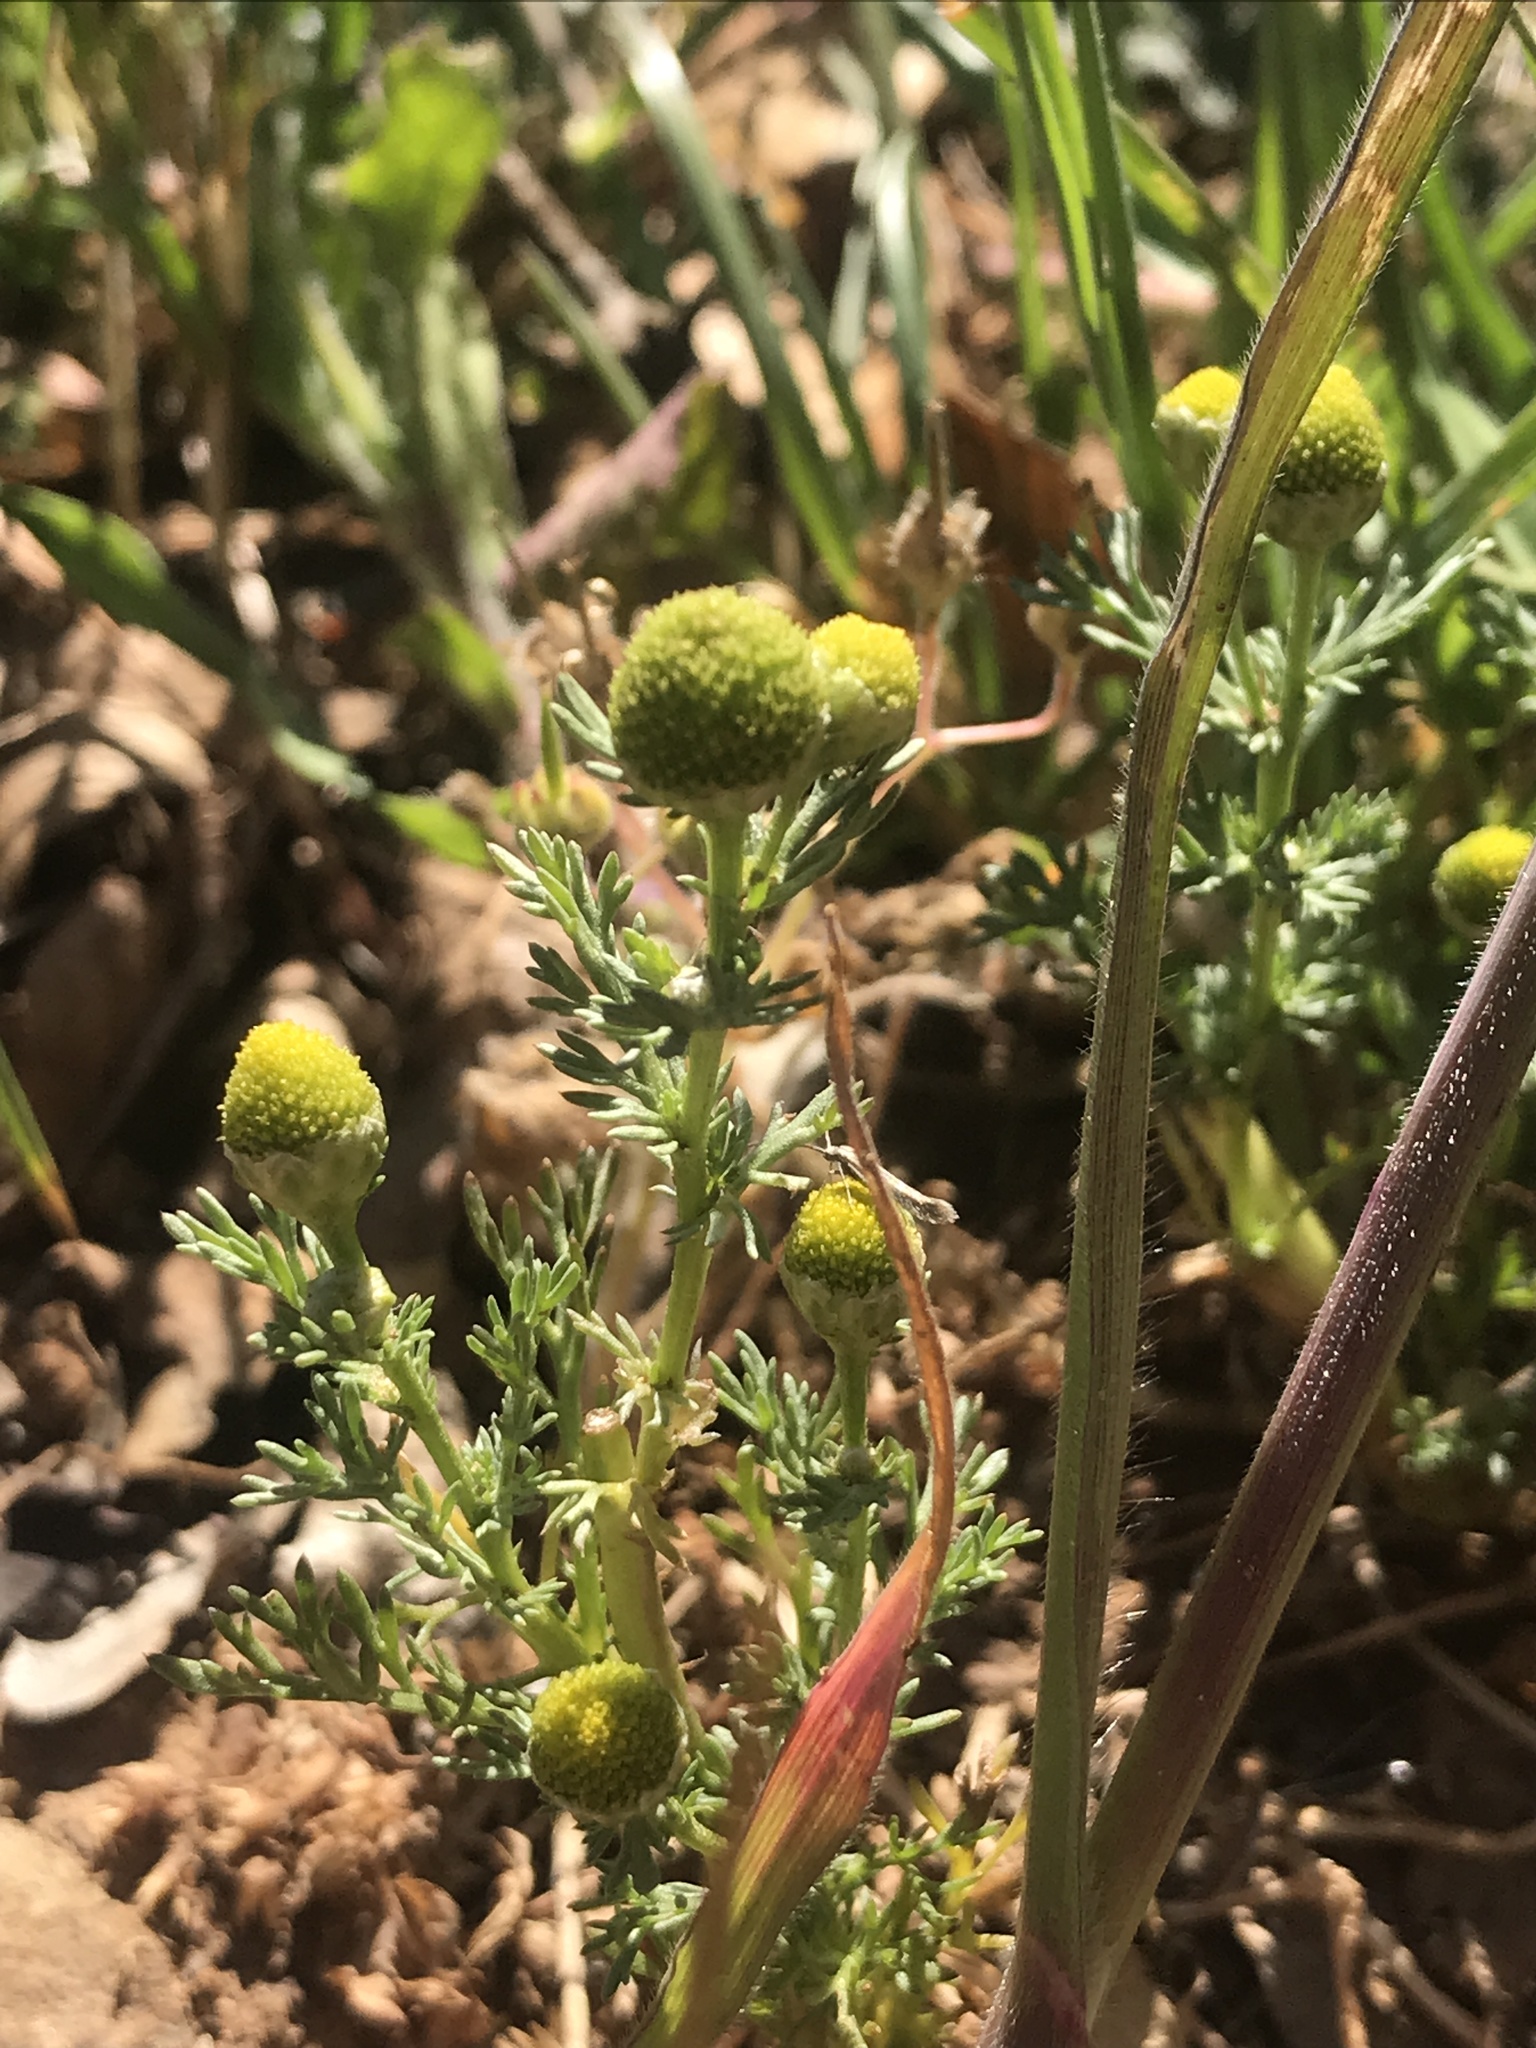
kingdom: Plantae
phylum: Tracheophyta
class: Magnoliopsida
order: Asterales
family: Asteraceae
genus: Matricaria
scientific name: Matricaria discoidea
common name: Disc mayweed
